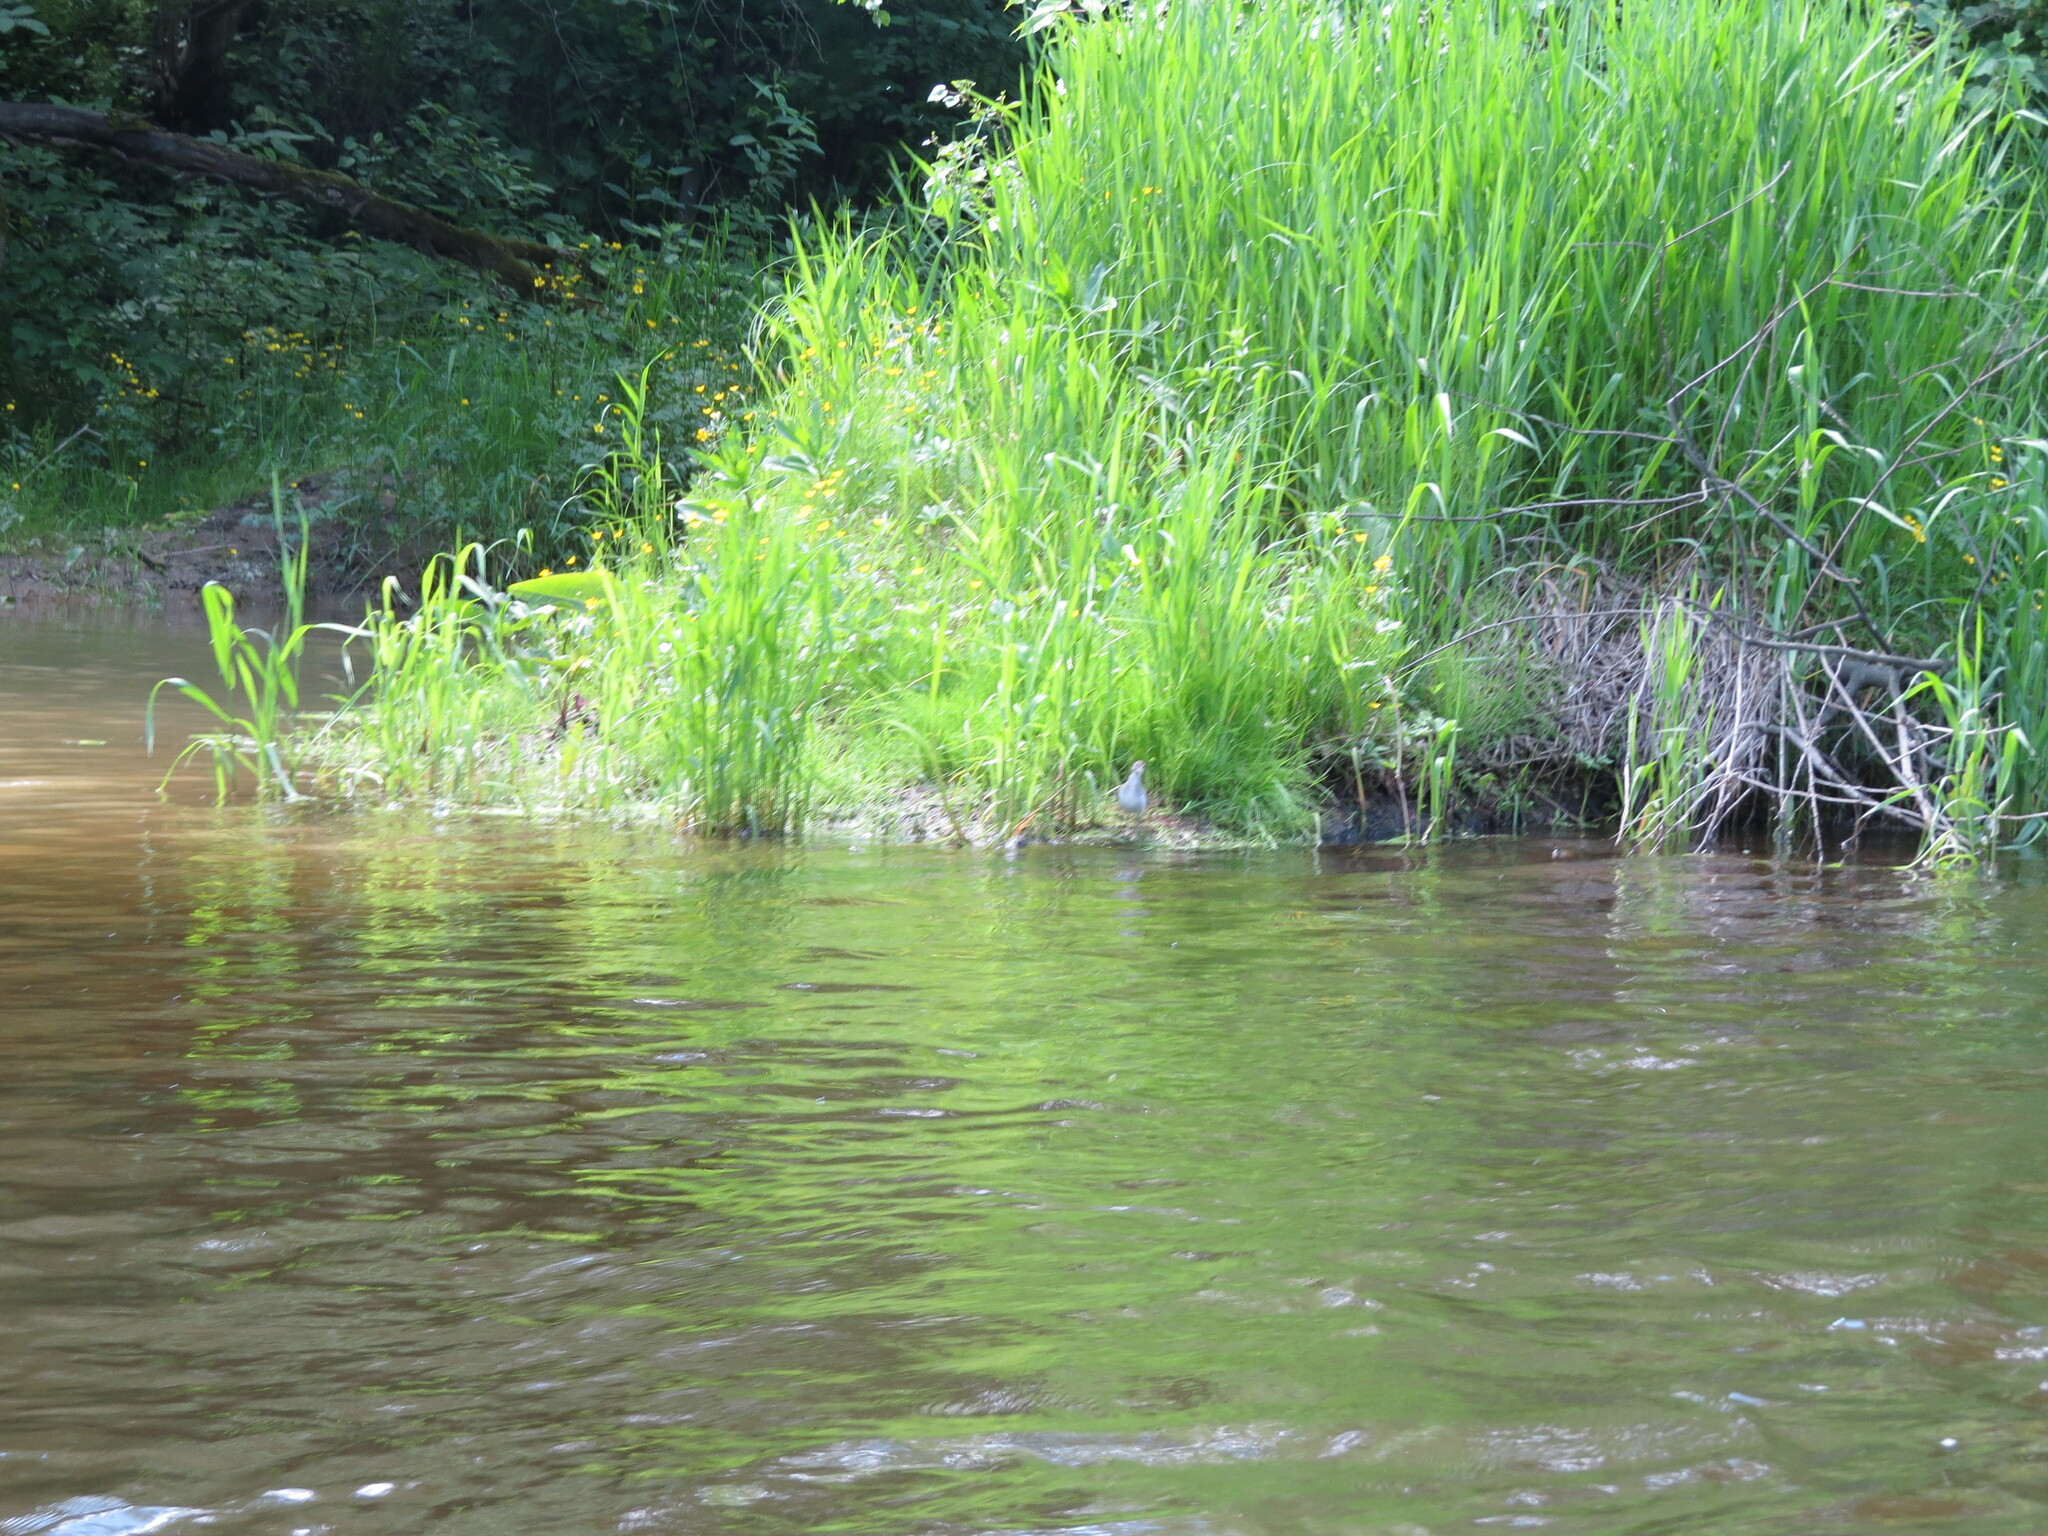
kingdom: Animalia
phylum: Chordata
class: Aves
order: Charadriiformes
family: Scolopacidae
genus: Actitis
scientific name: Actitis hypoleucos
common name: Common sandpiper
